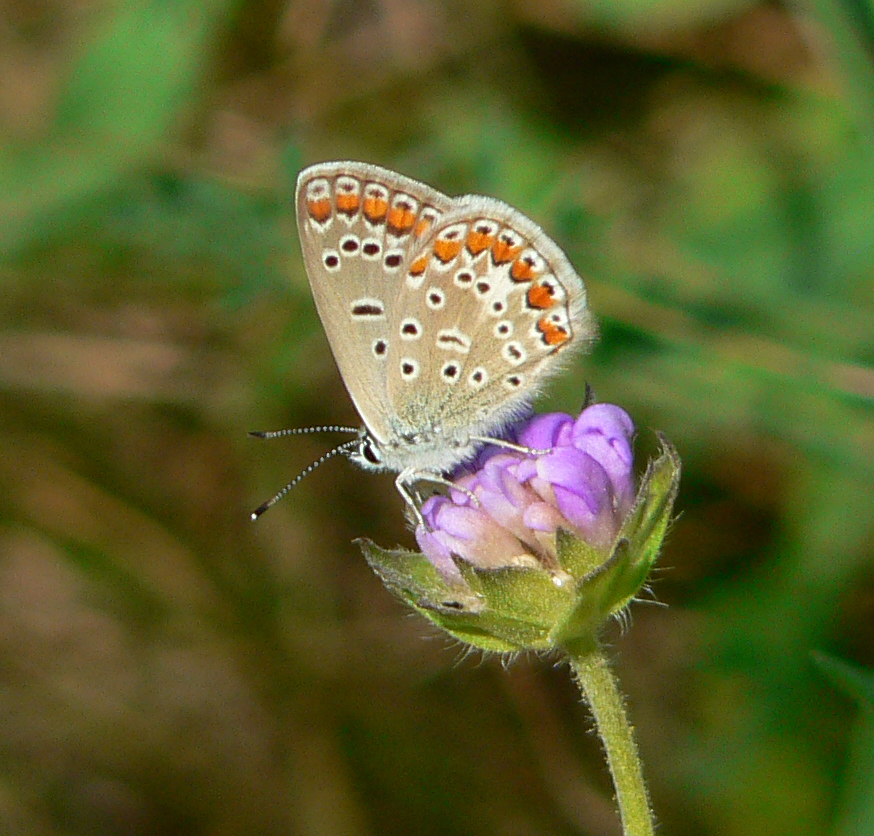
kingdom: Animalia
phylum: Arthropoda
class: Insecta
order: Lepidoptera
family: Lycaenidae
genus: Polyommatus
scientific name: Polyommatus icarus
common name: Common blue
